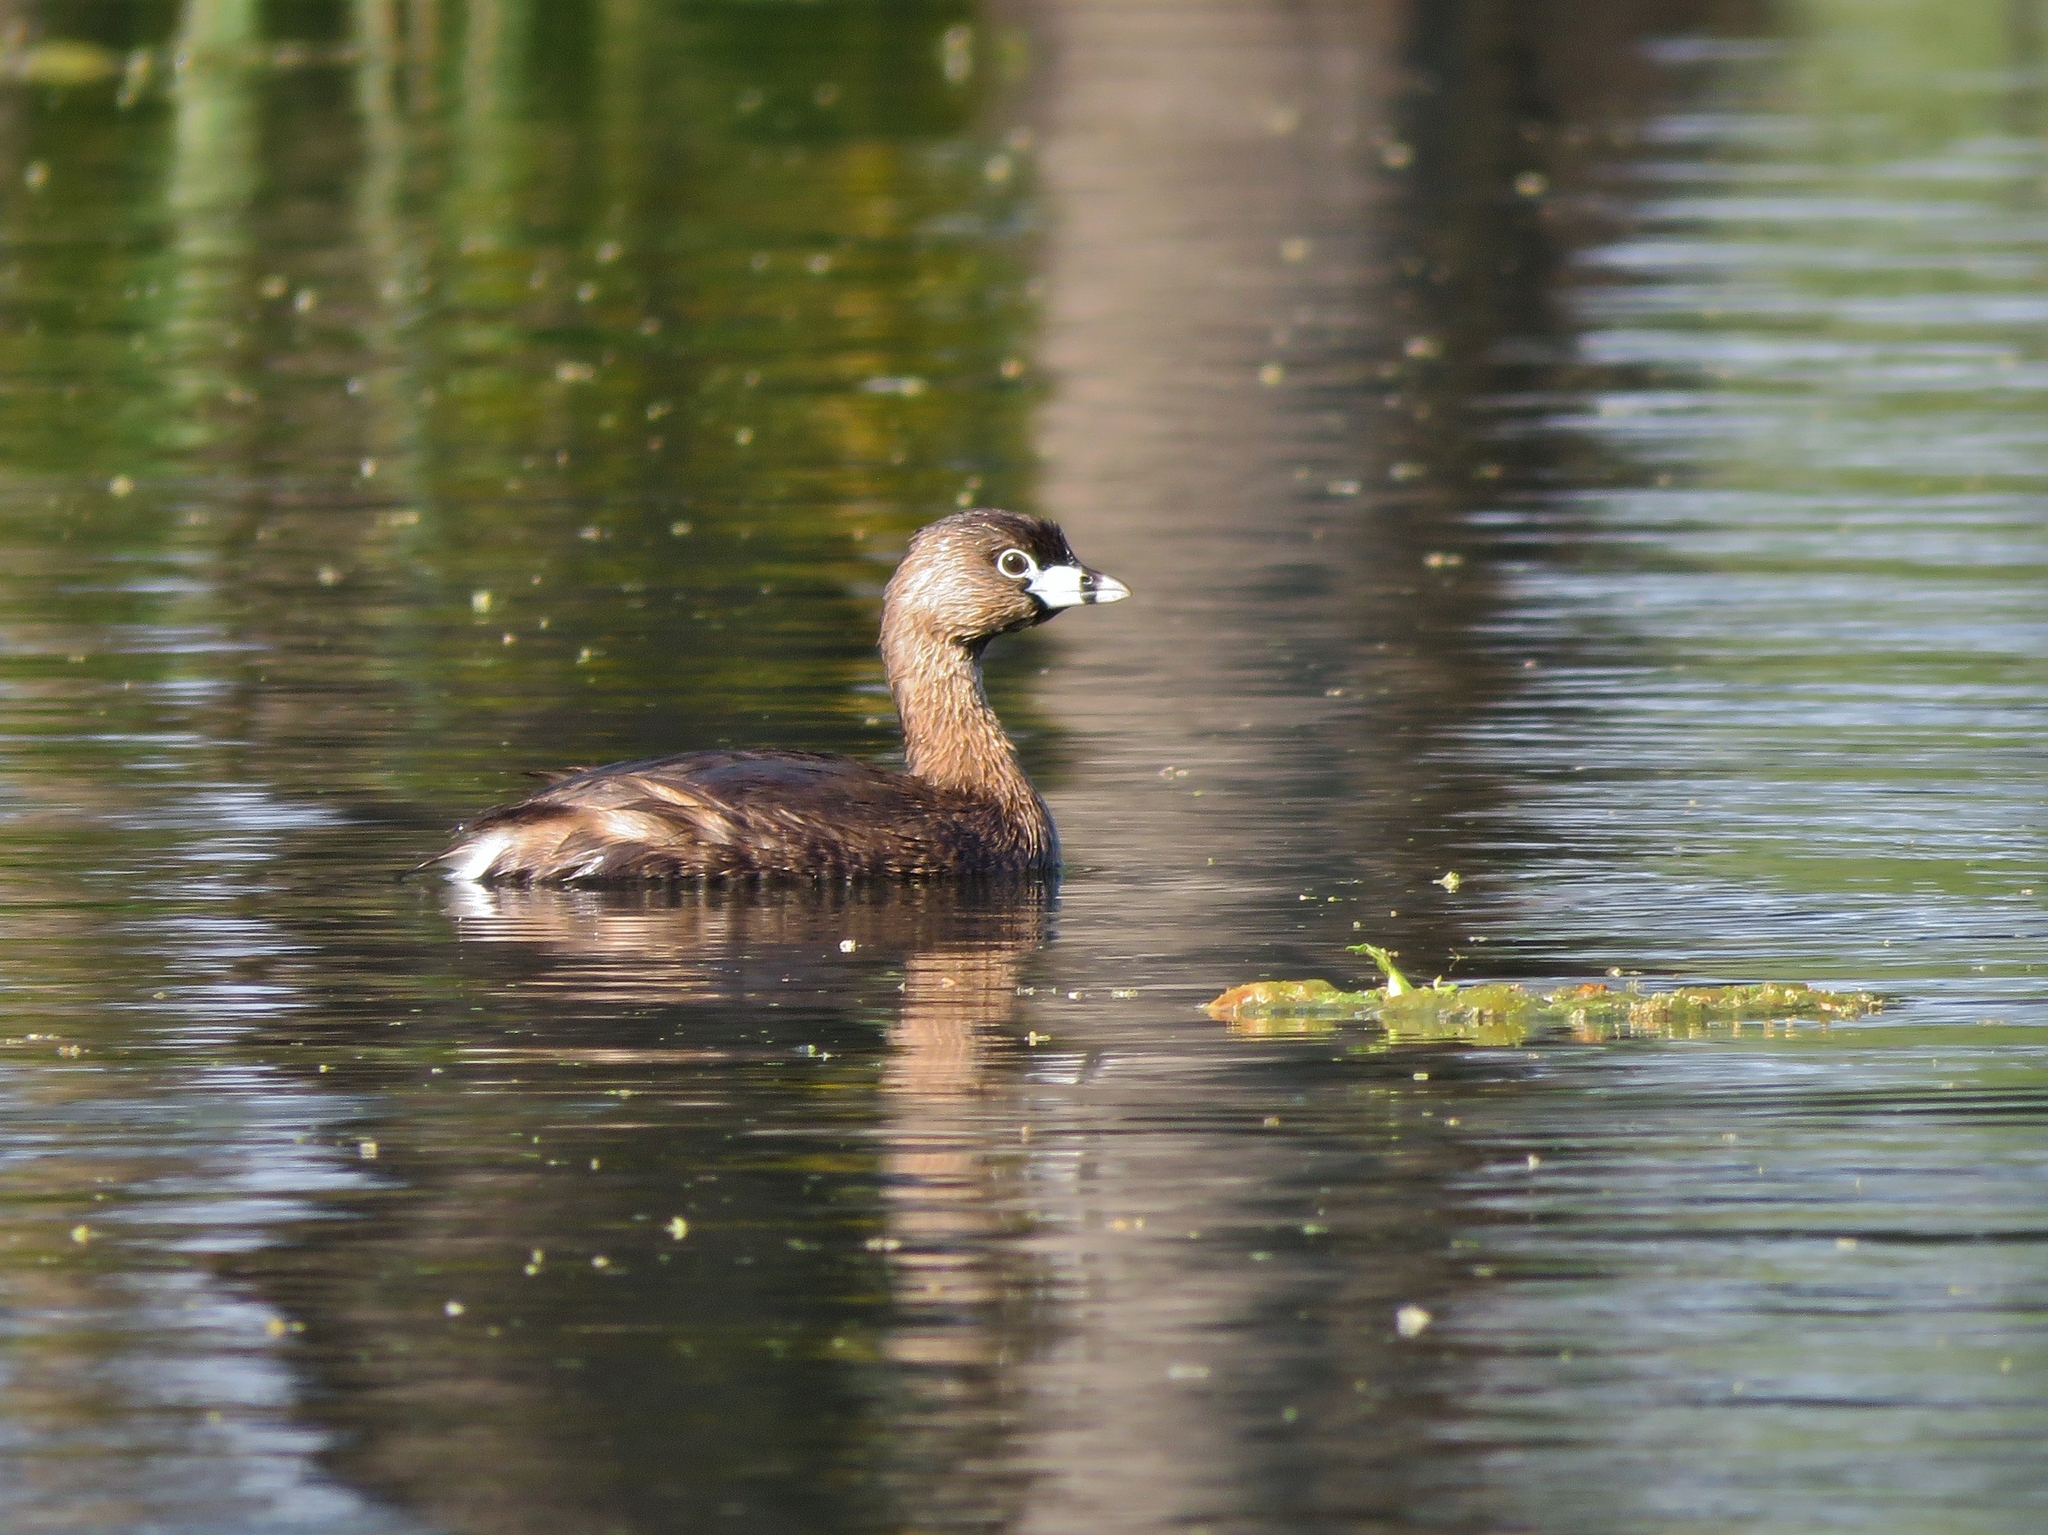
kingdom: Animalia
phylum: Chordata
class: Aves
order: Podicipediformes
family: Podicipedidae
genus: Podilymbus
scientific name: Podilymbus podiceps
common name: Pied-billed grebe
